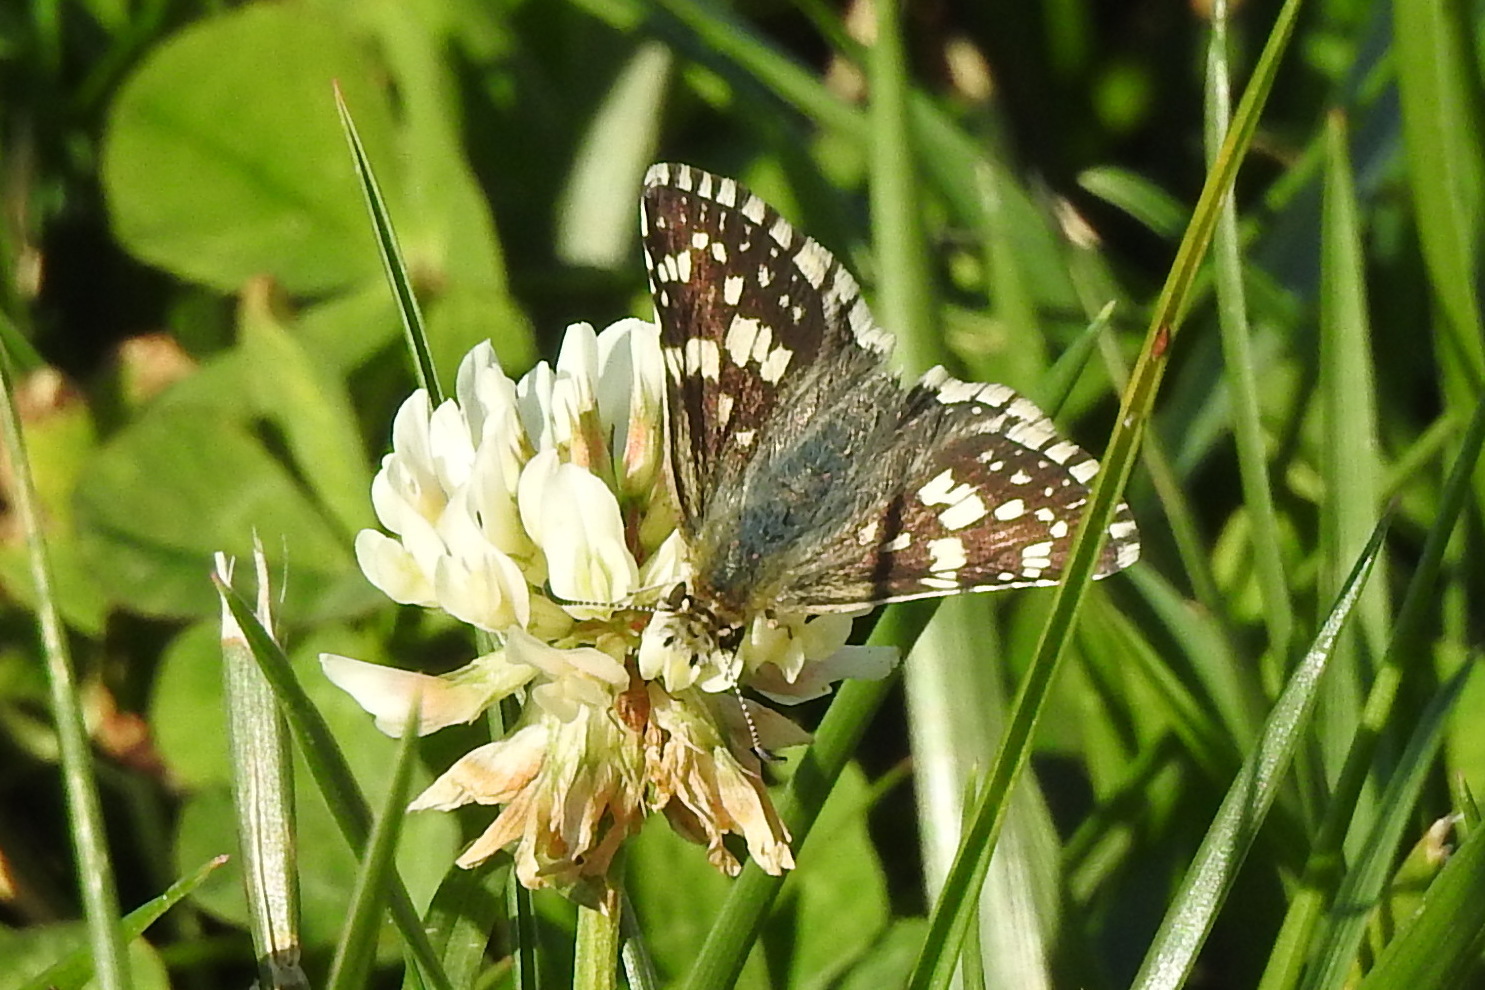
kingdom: Animalia
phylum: Arthropoda
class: Insecta
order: Lepidoptera
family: Hesperiidae
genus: Burnsius
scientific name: Burnsius communis
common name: Common checkered-skipper
